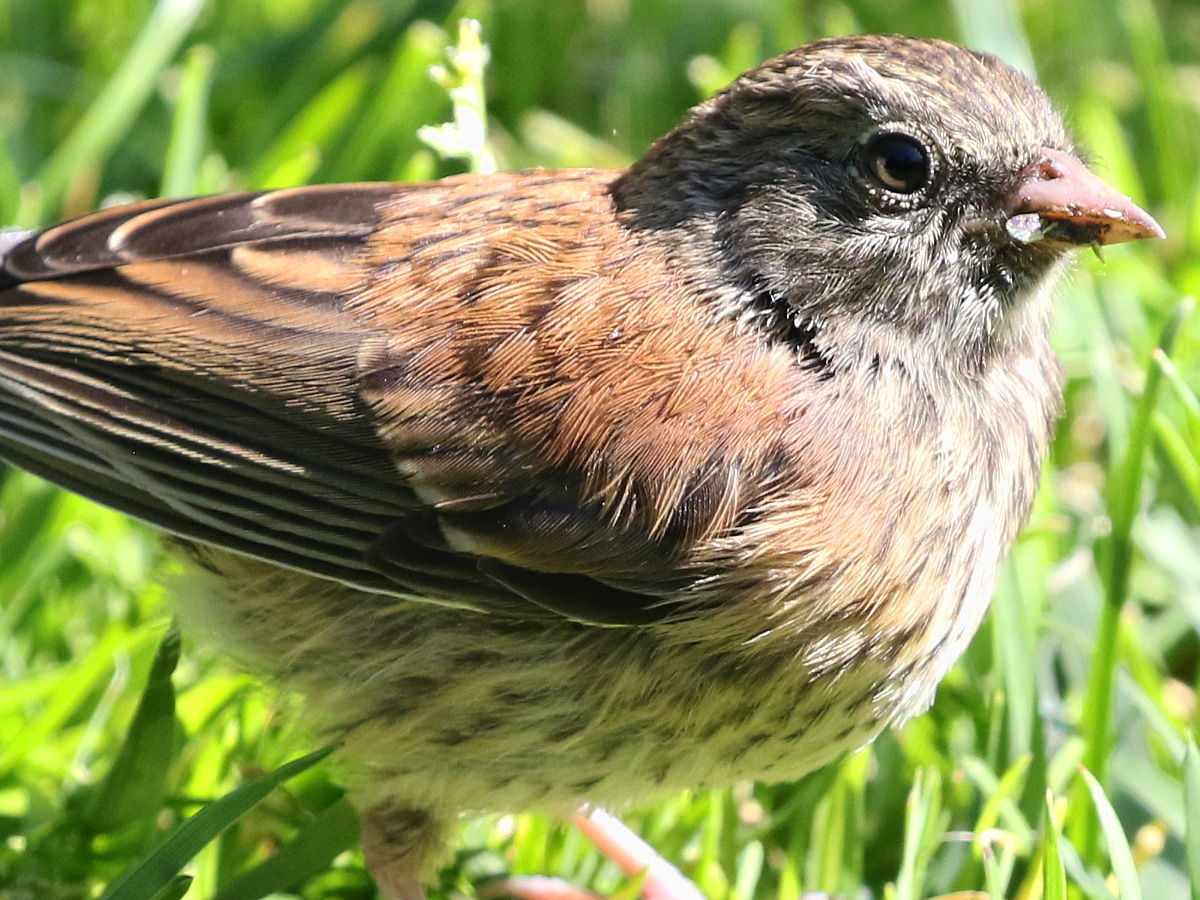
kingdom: Animalia
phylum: Chordata
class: Aves
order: Passeriformes
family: Passerellidae
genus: Junco
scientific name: Junco hyemalis
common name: Dark-eyed junco
